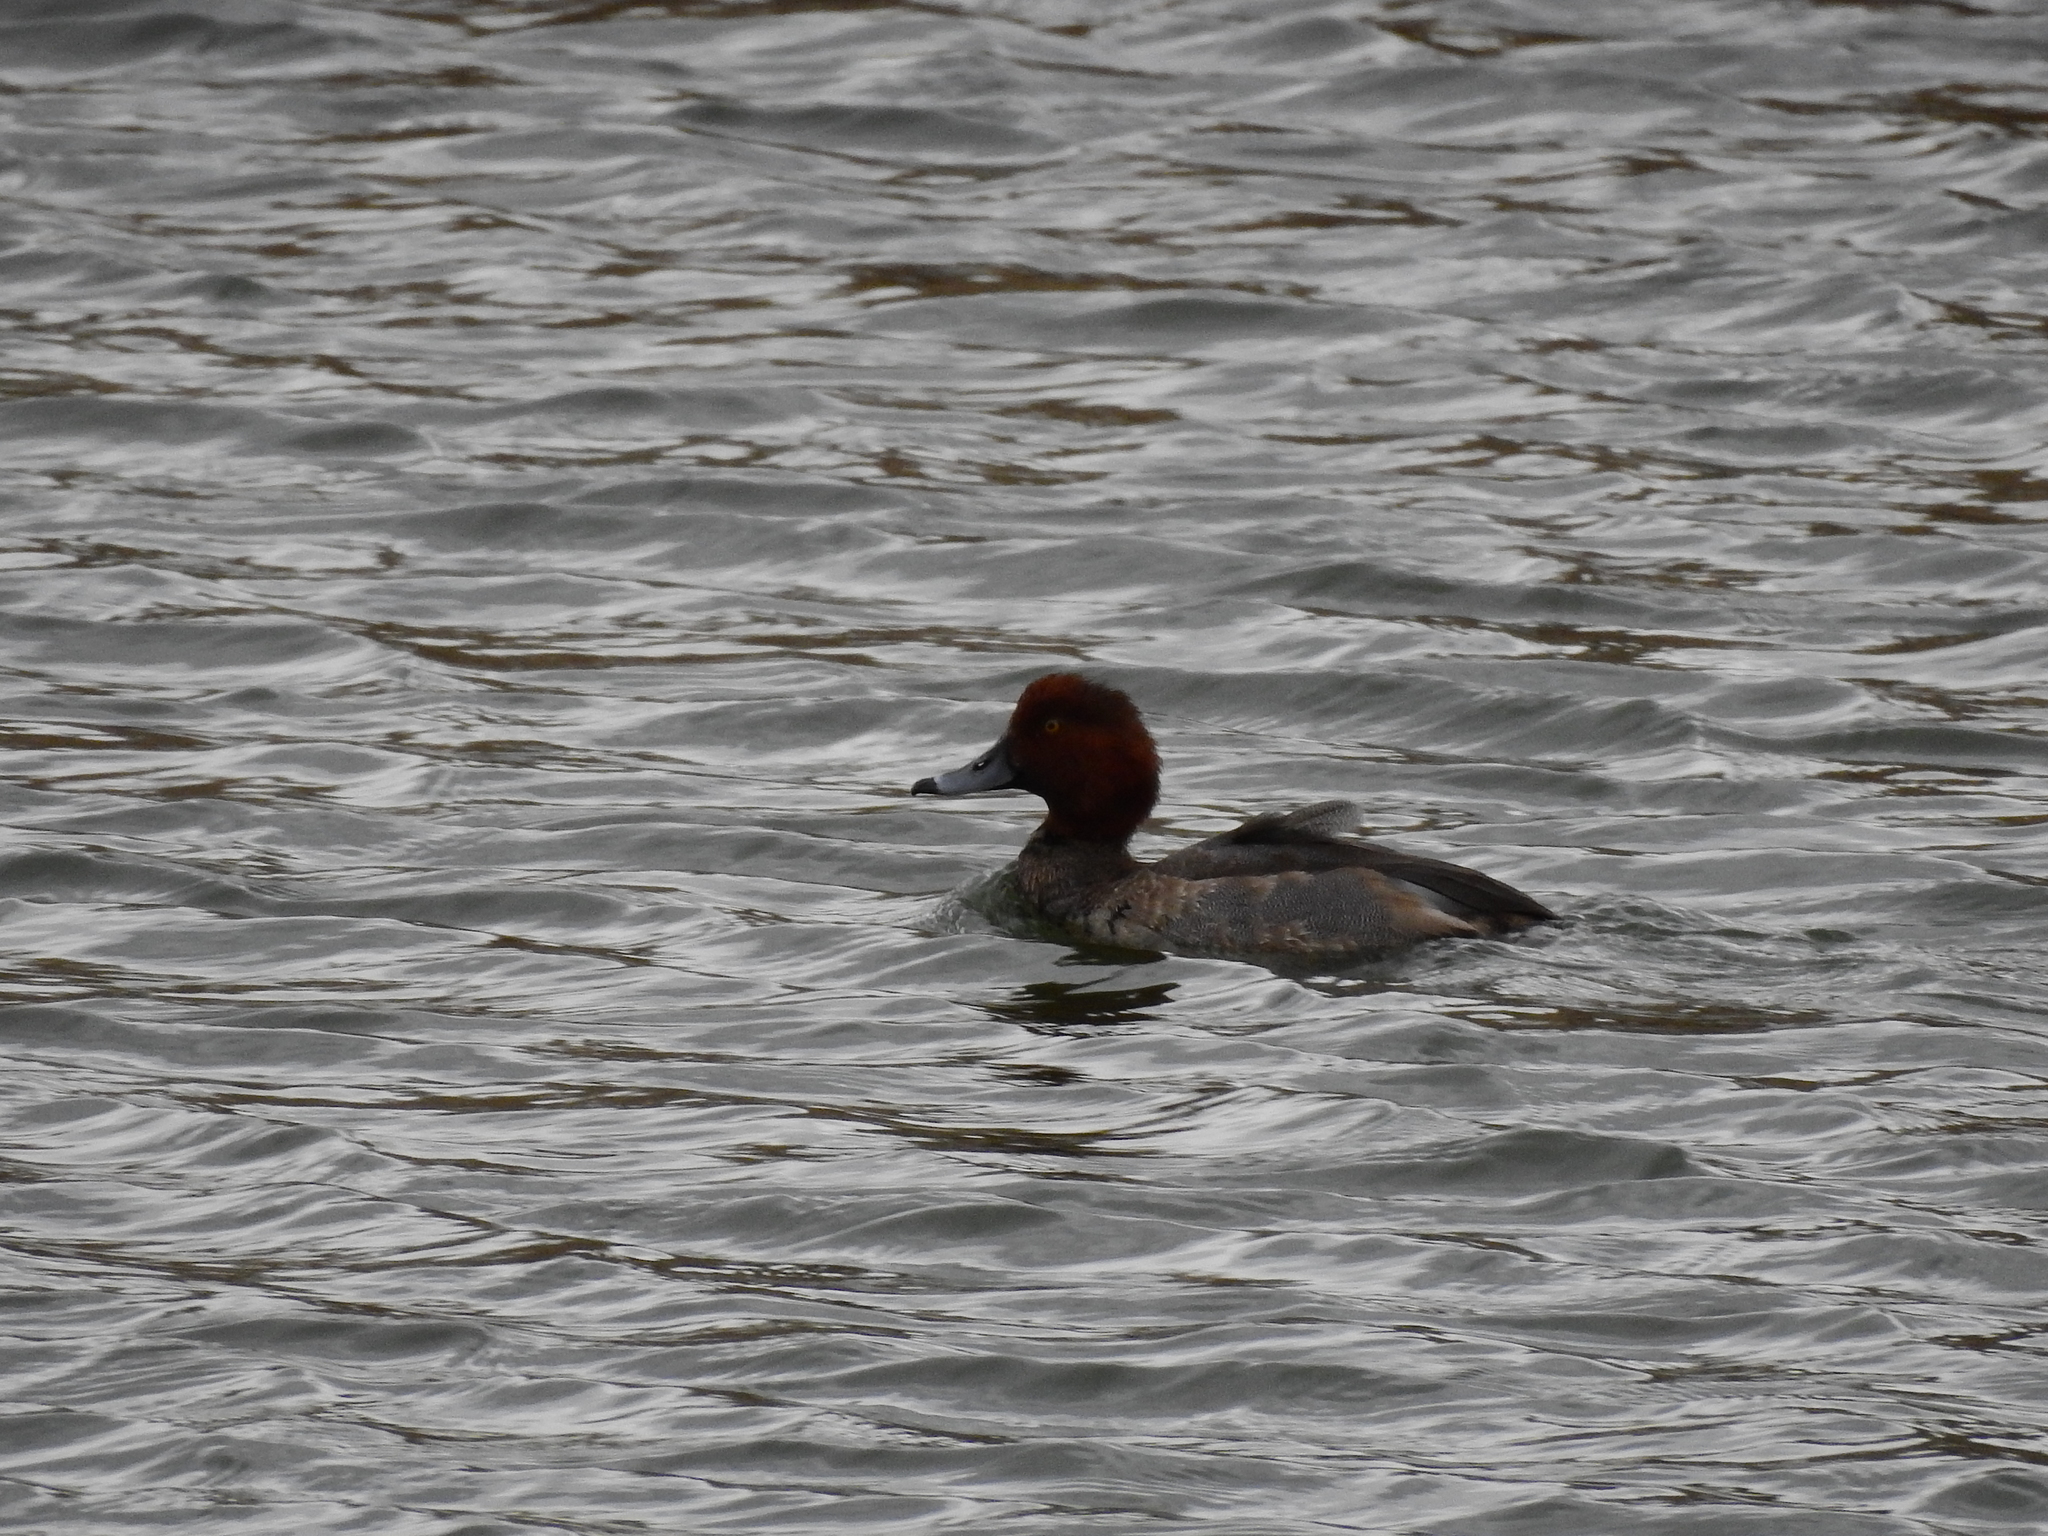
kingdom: Animalia
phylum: Chordata
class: Aves
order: Anseriformes
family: Anatidae
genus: Aythya
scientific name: Aythya americana
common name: Redhead
